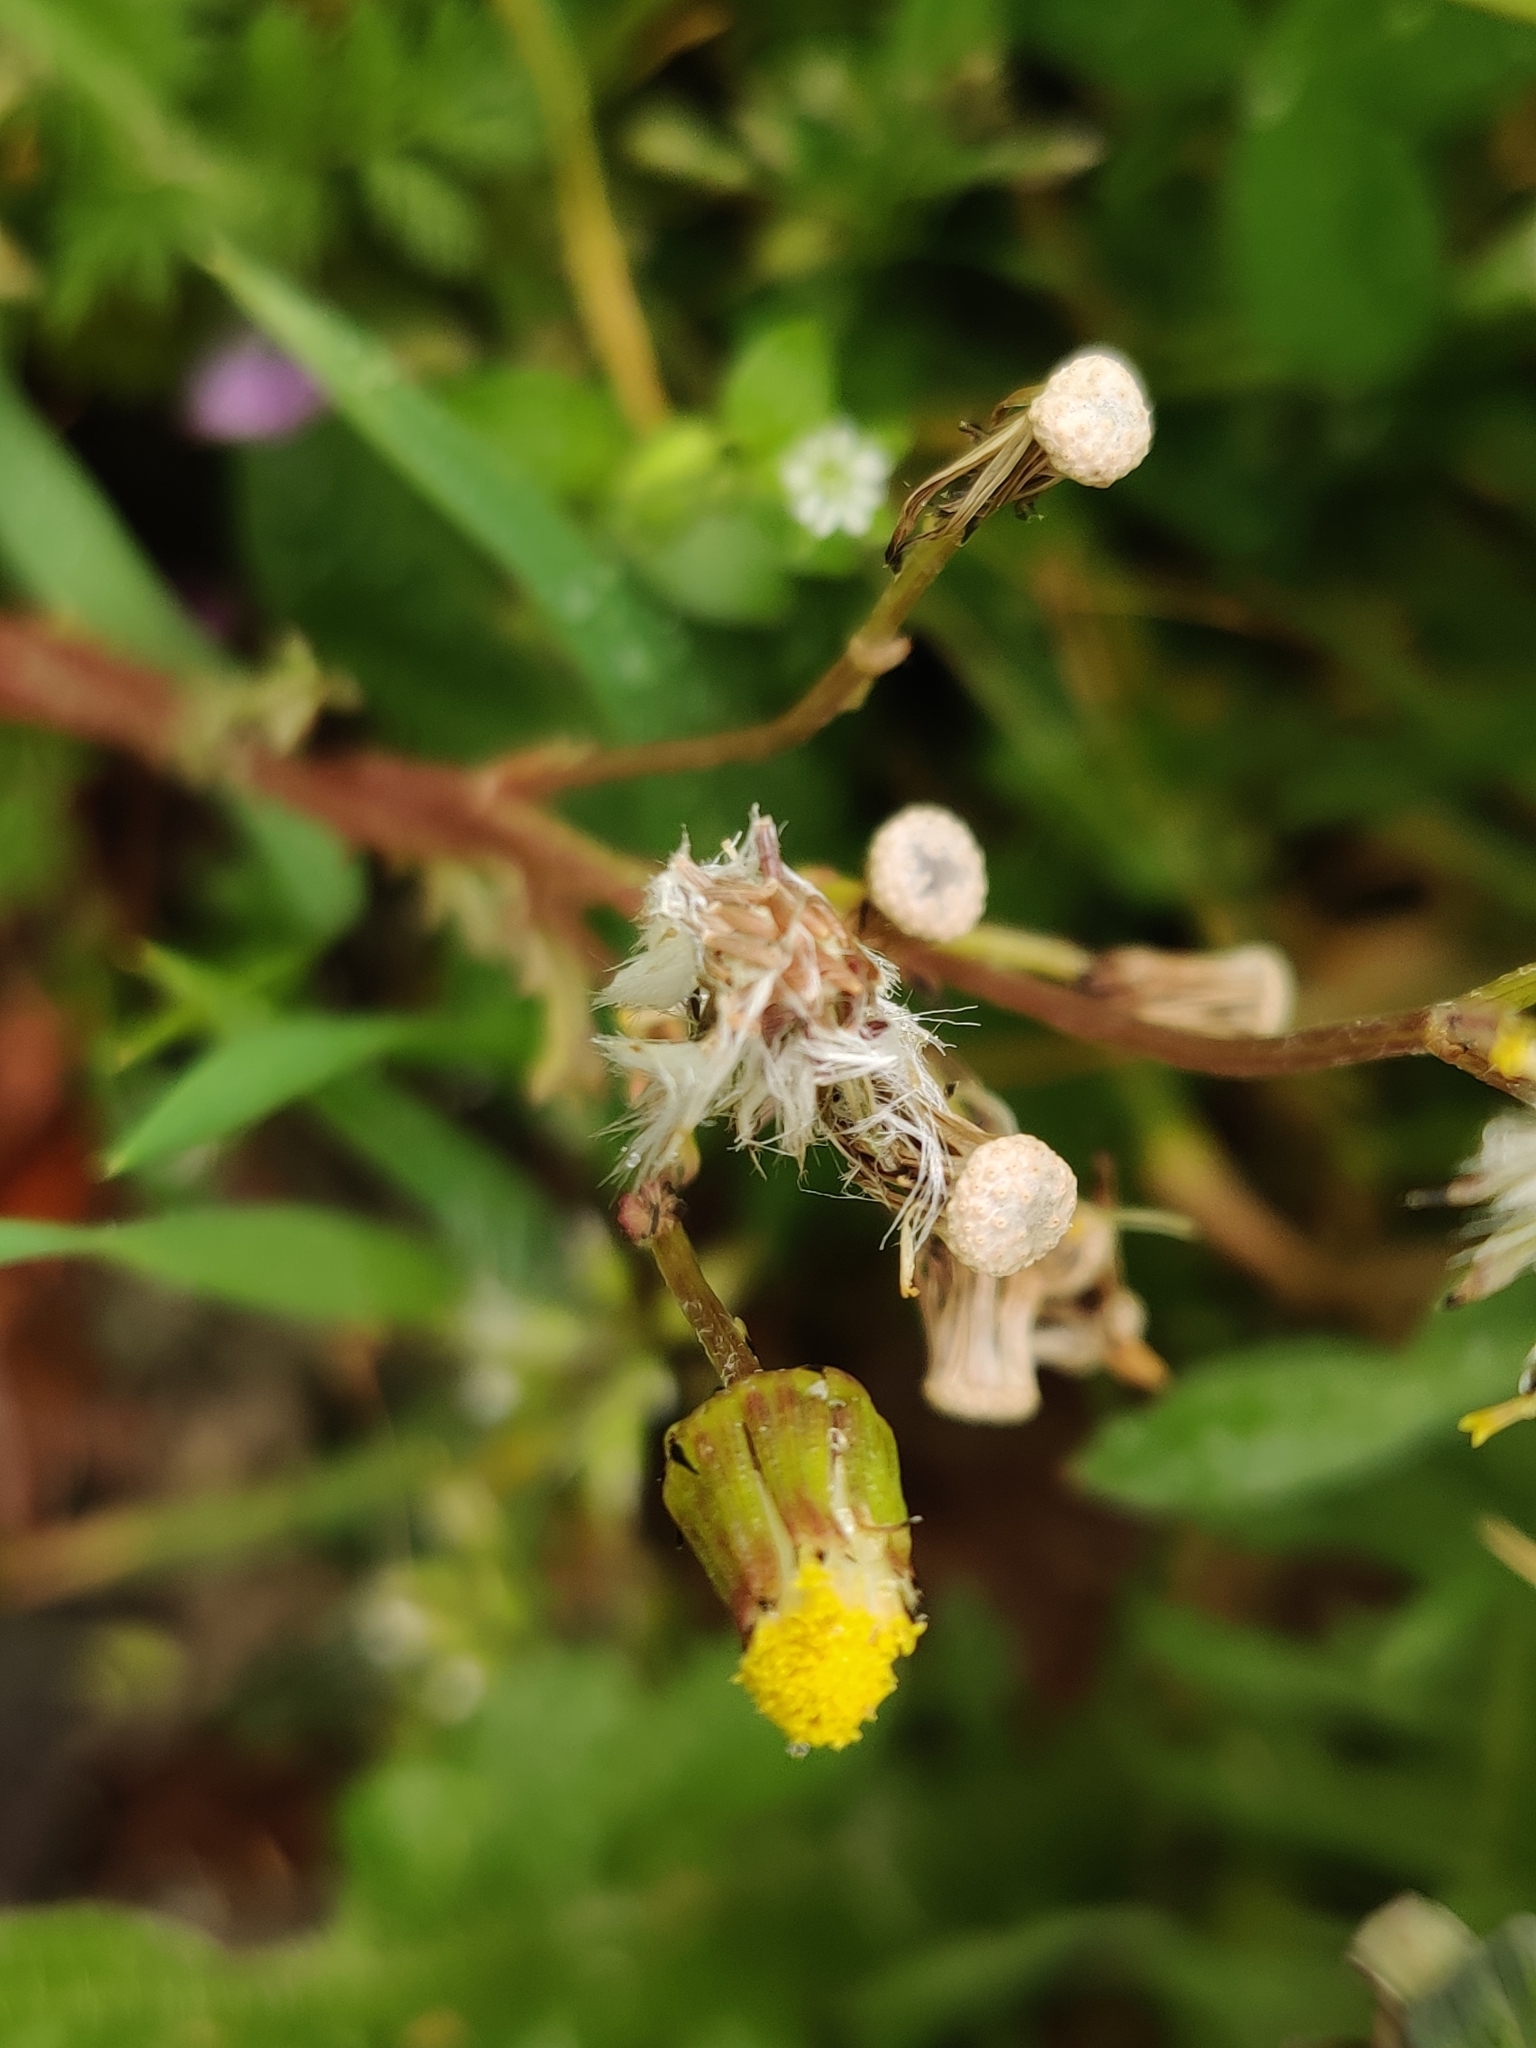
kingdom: Plantae
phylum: Tracheophyta
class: Magnoliopsida
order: Asterales
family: Asteraceae
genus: Senecio
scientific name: Senecio vulgaris
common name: Old-man-in-the-spring
